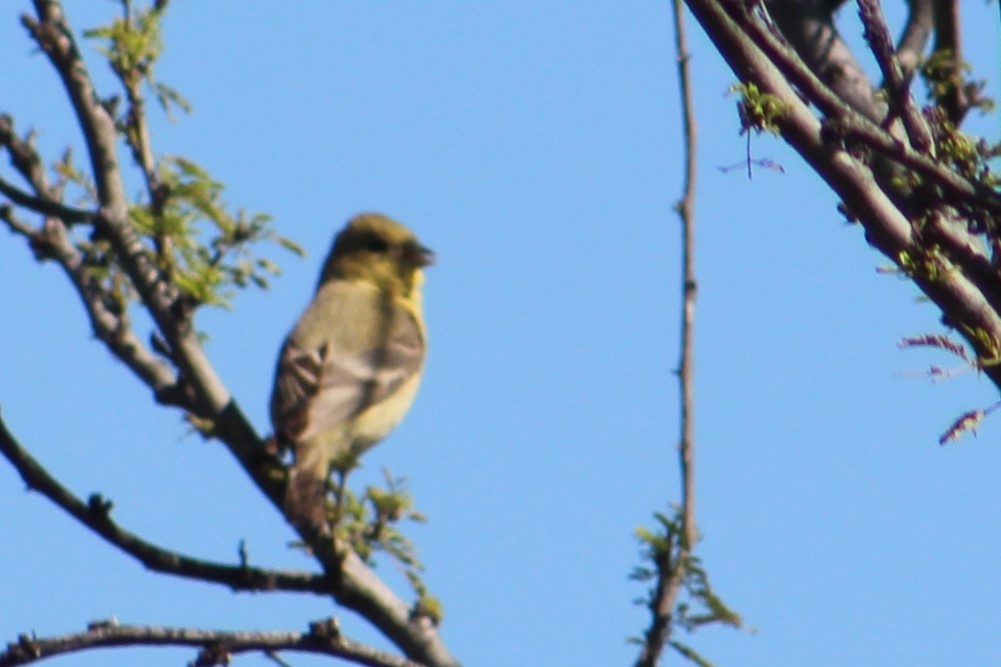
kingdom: Animalia
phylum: Chordata
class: Aves
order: Passeriformes
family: Fringillidae
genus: Spinus
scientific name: Spinus psaltria
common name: Lesser goldfinch
